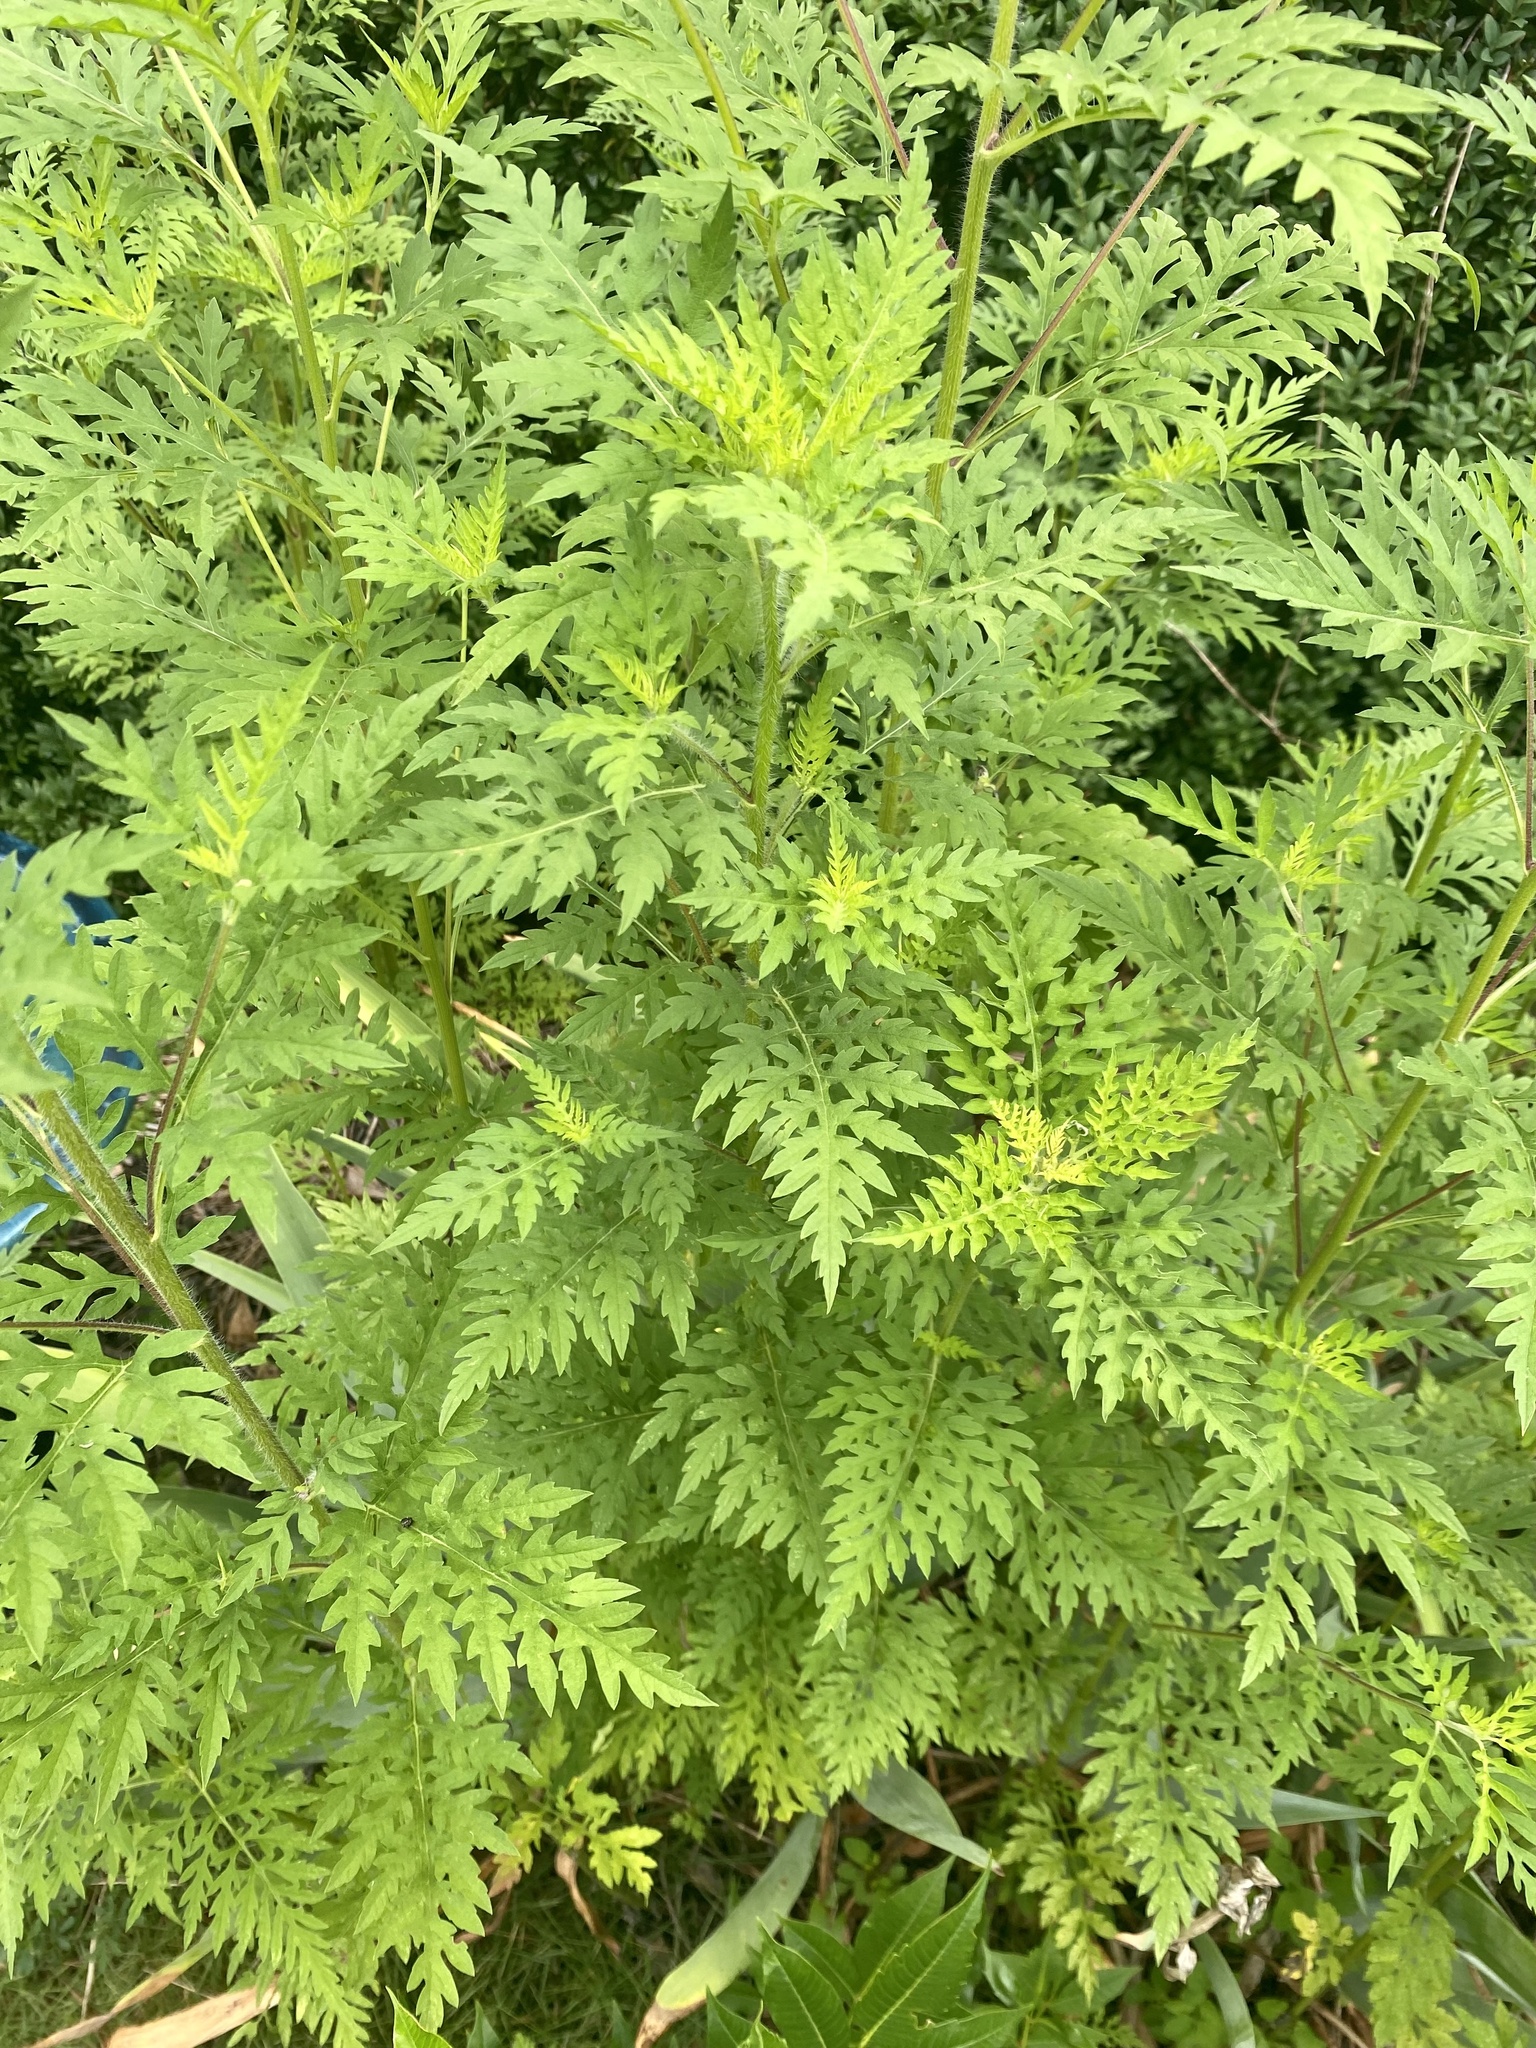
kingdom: Plantae
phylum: Tracheophyta
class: Magnoliopsida
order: Asterales
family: Asteraceae
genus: Ambrosia
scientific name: Ambrosia artemisiifolia
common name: Annual ragweed
